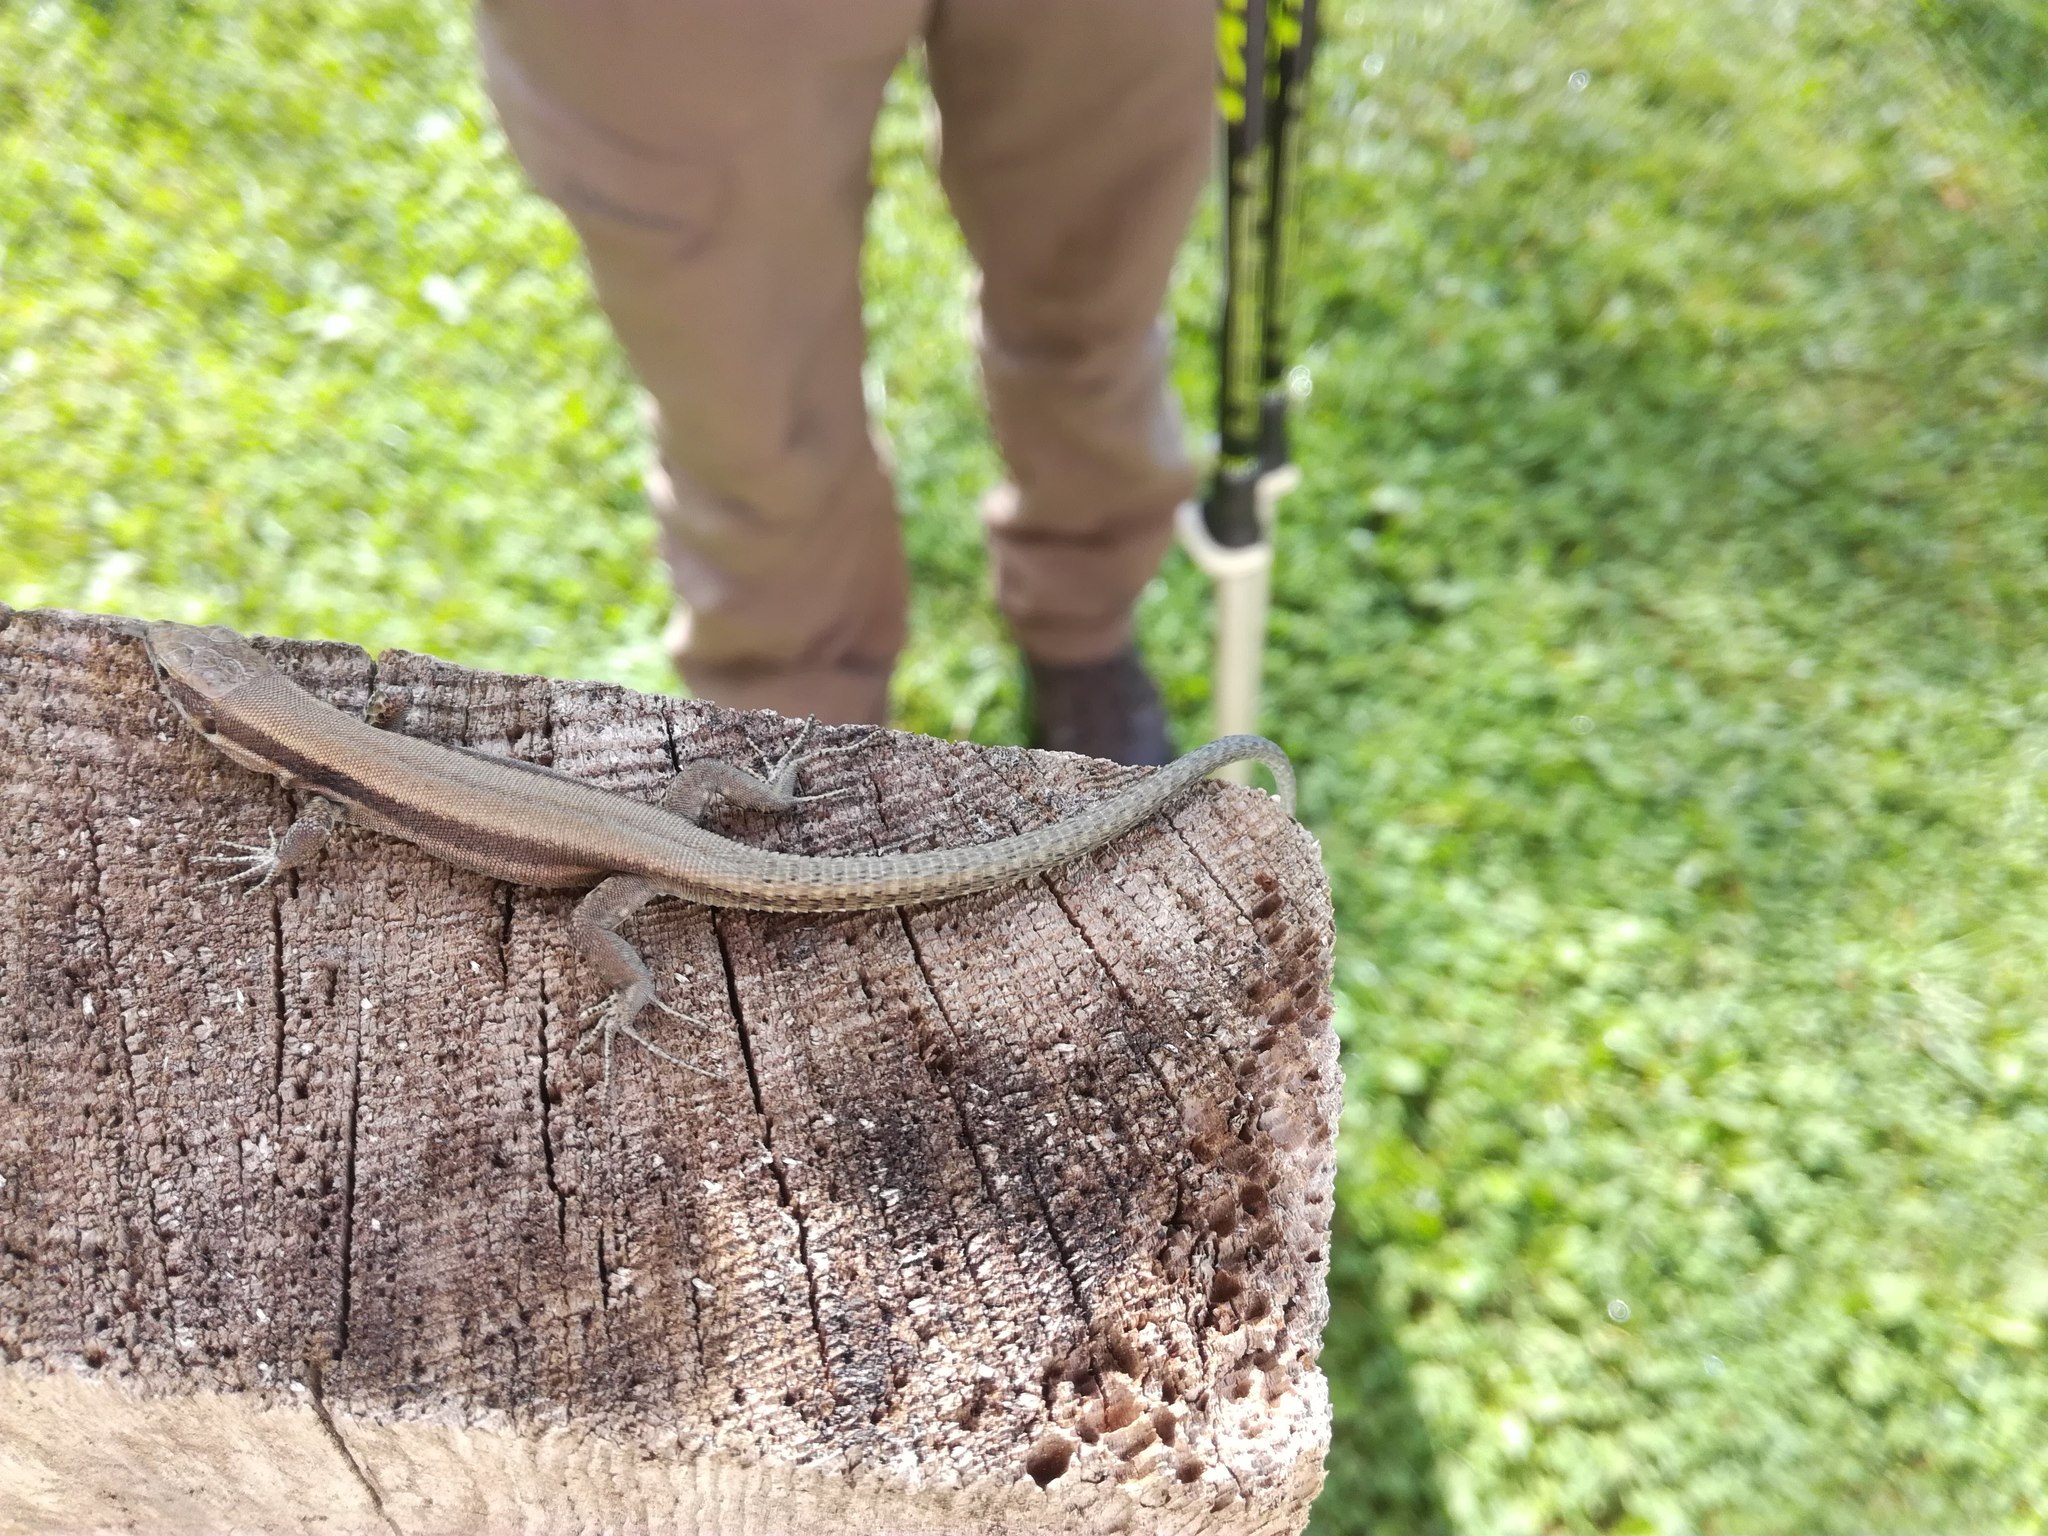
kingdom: Animalia
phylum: Chordata
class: Squamata
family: Lacertidae
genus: Podarcis
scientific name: Podarcis muralis
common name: Common wall lizard
